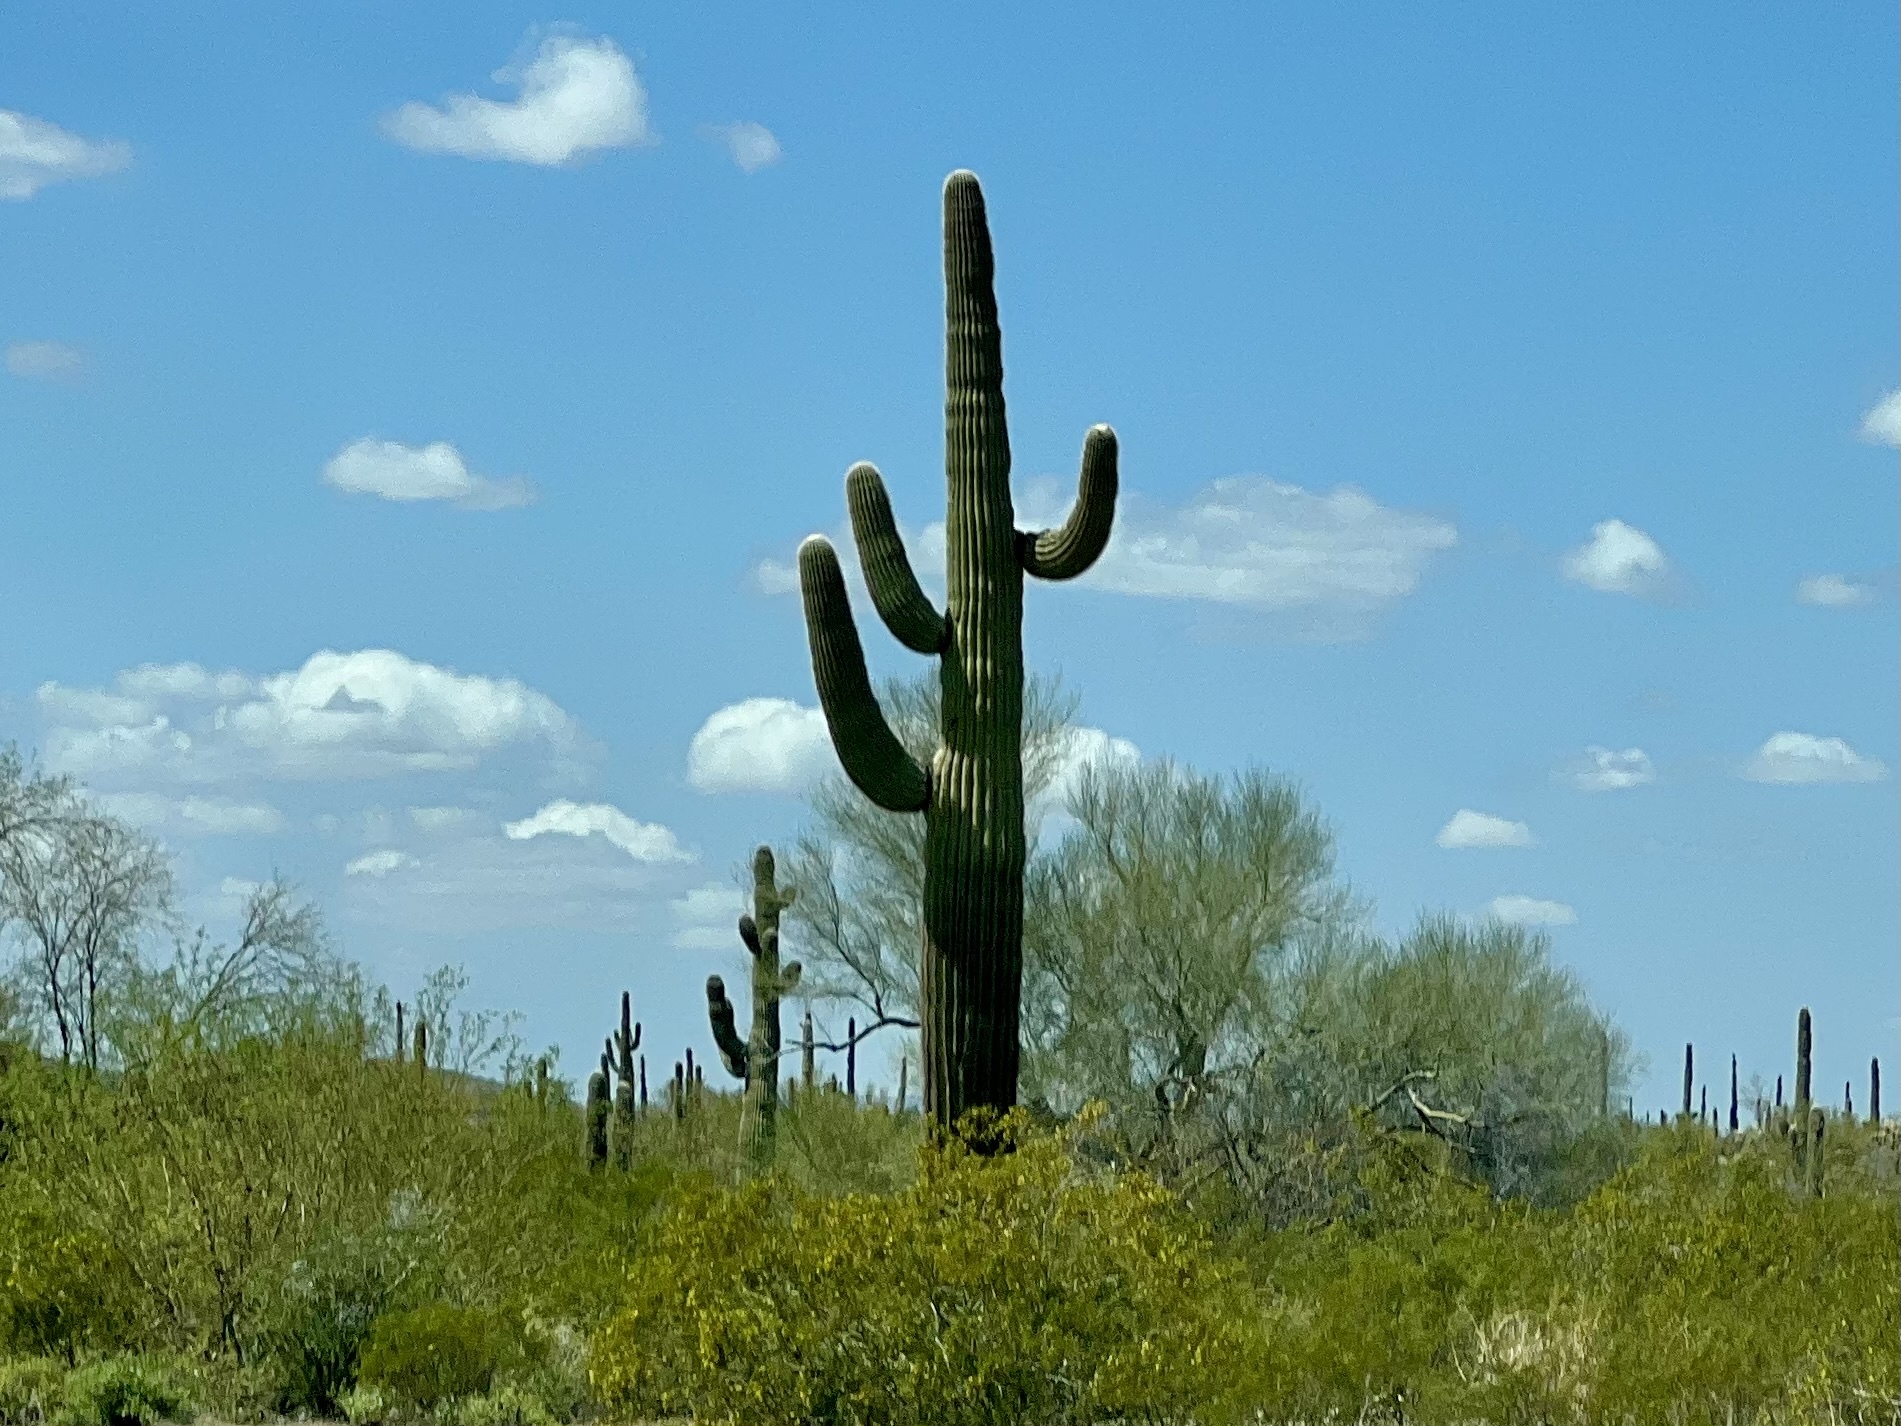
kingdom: Plantae
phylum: Tracheophyta
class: Magnoliopsida
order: Caryophyllales
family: Cactaceae
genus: Carnegiea
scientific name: Carnegiea gigantea
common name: Saguaro
